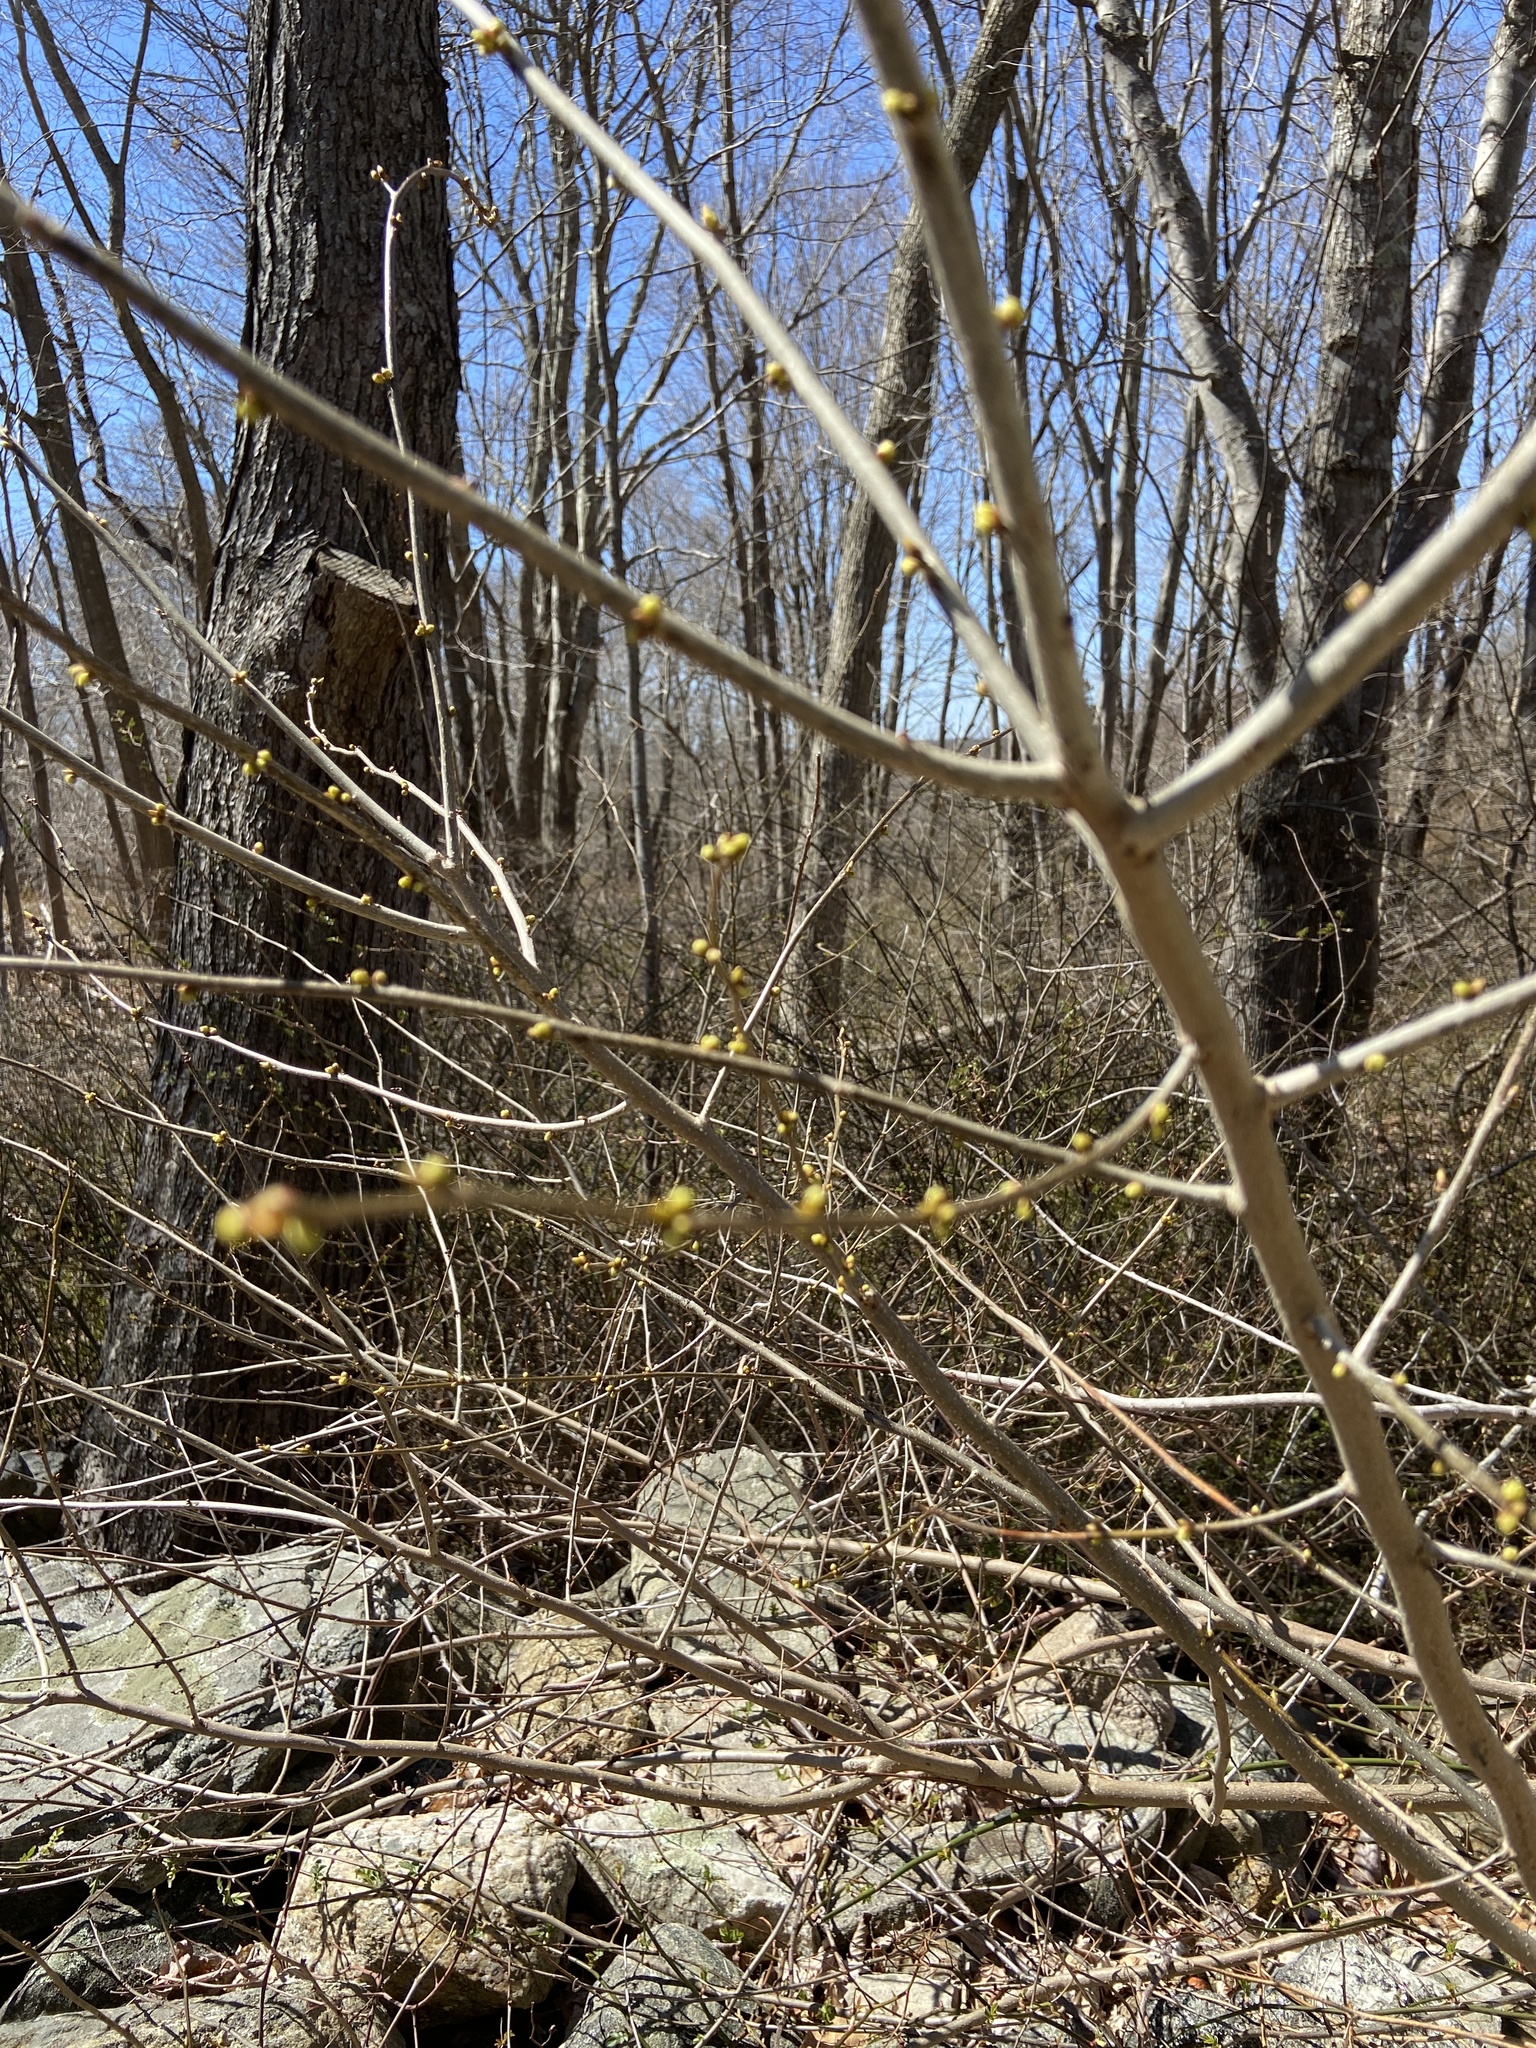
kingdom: Plantae
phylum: Tracheophyta
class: Magnoliopsida
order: Laurales
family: Lauraceae
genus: Lindera
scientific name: Lindera benzoin
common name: Spicebush
